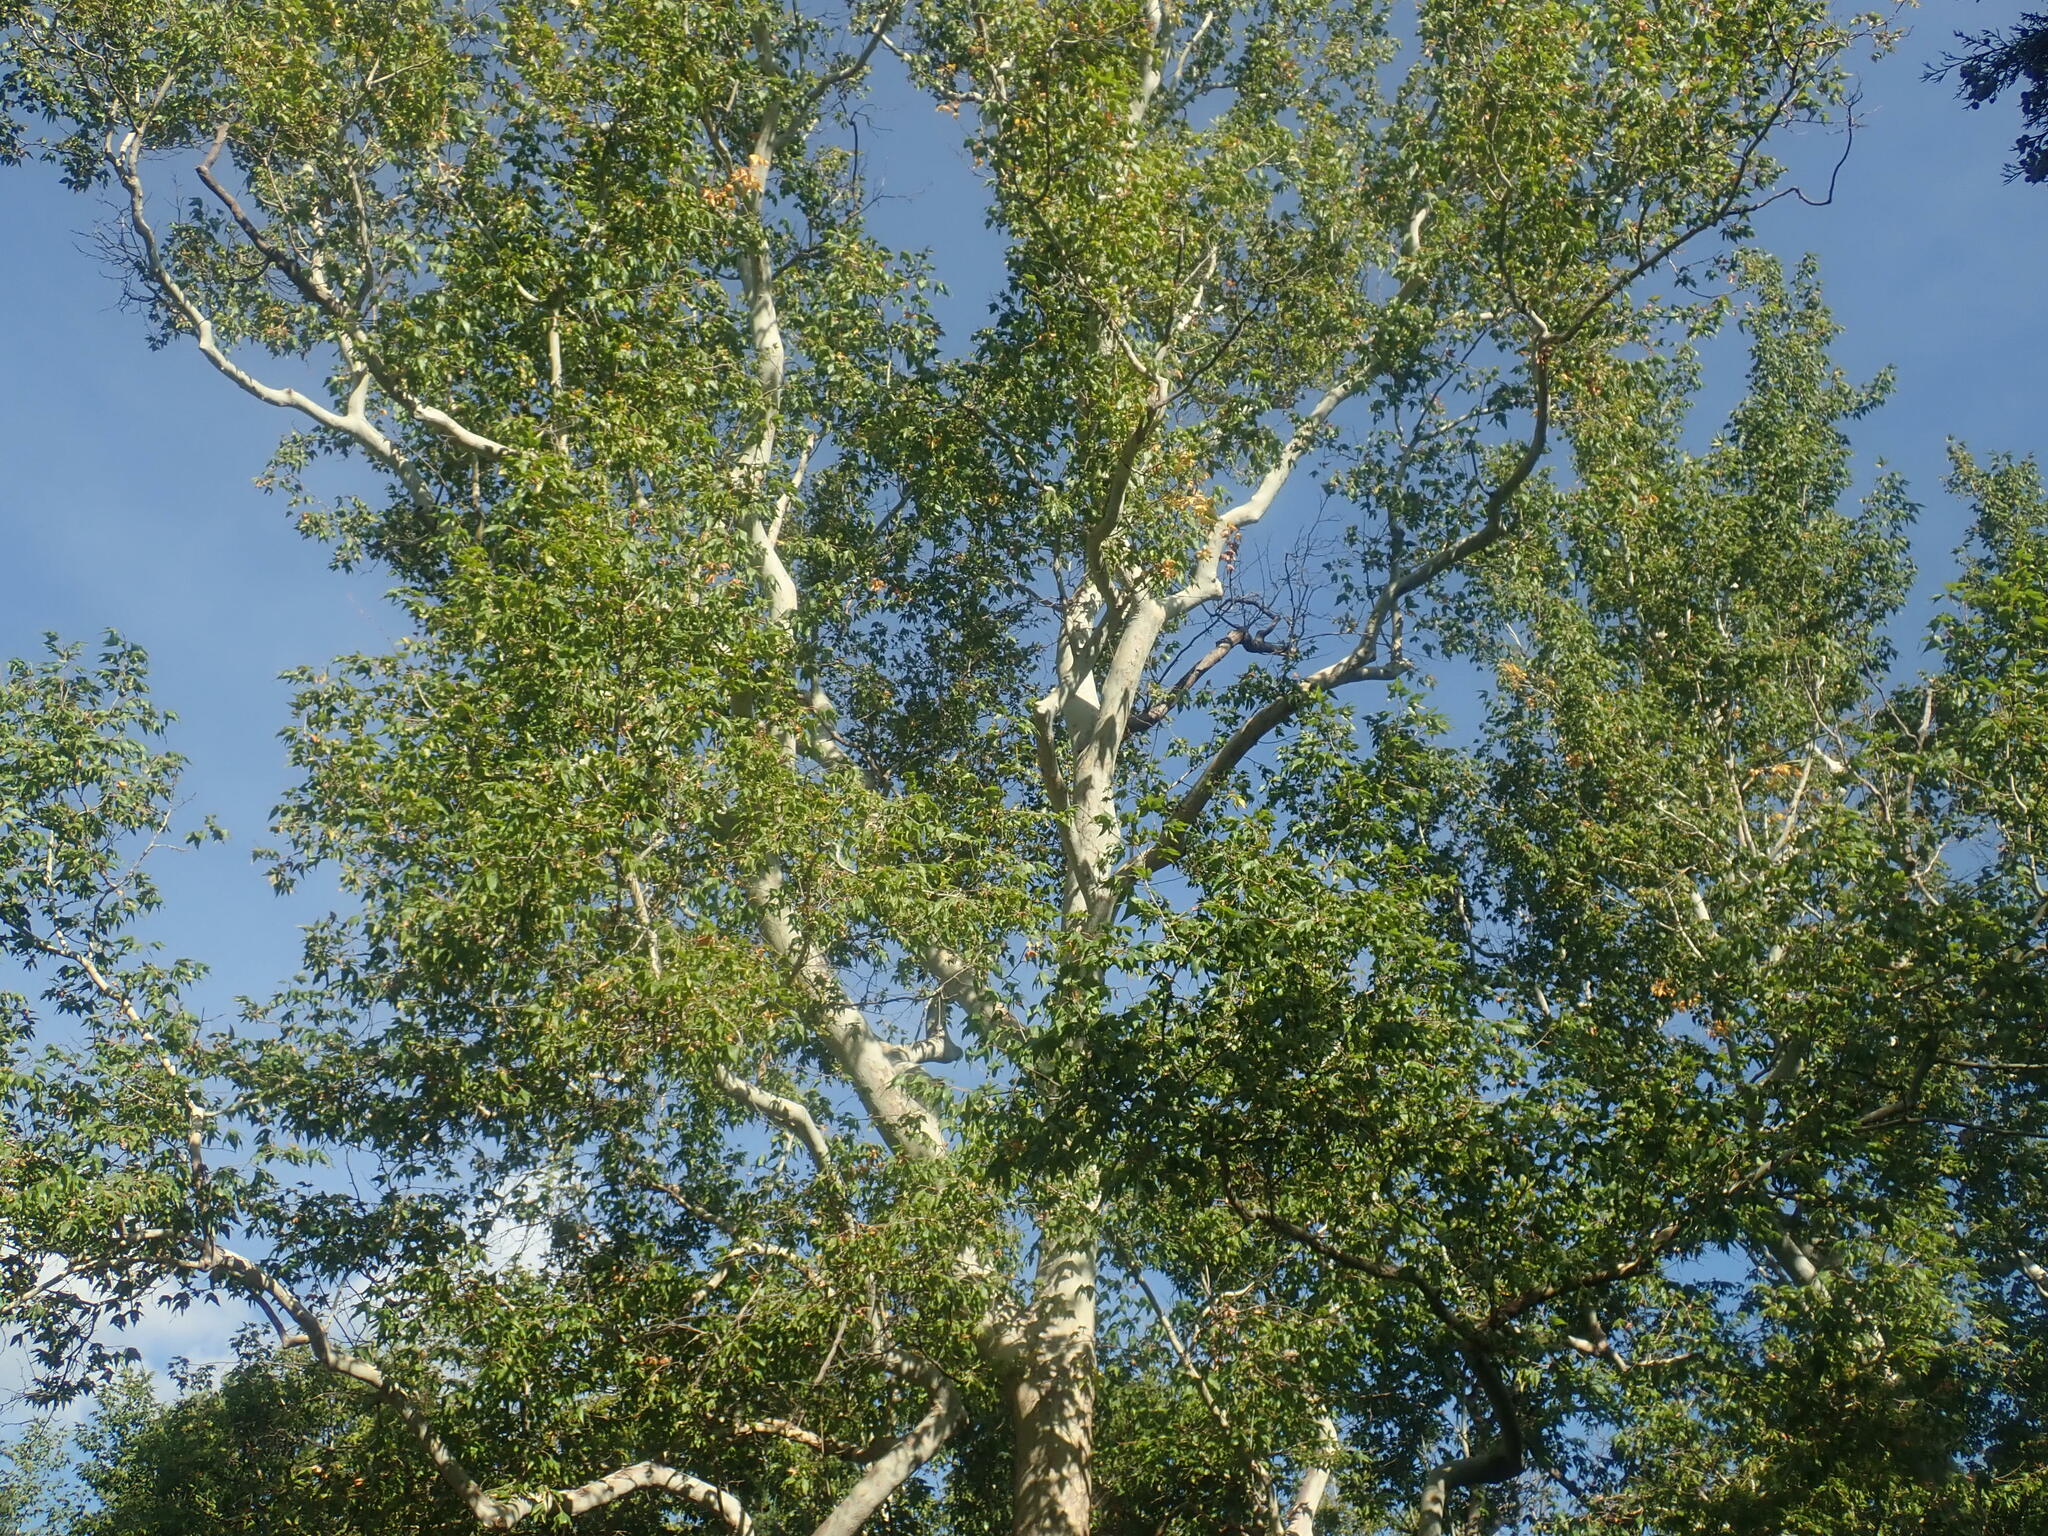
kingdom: Plantae
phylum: Tracheophyta
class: Magnoliopsida
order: Proteales
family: Platanaceae
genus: Platanus
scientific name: Platanus wrightii
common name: Arizona sycamore
